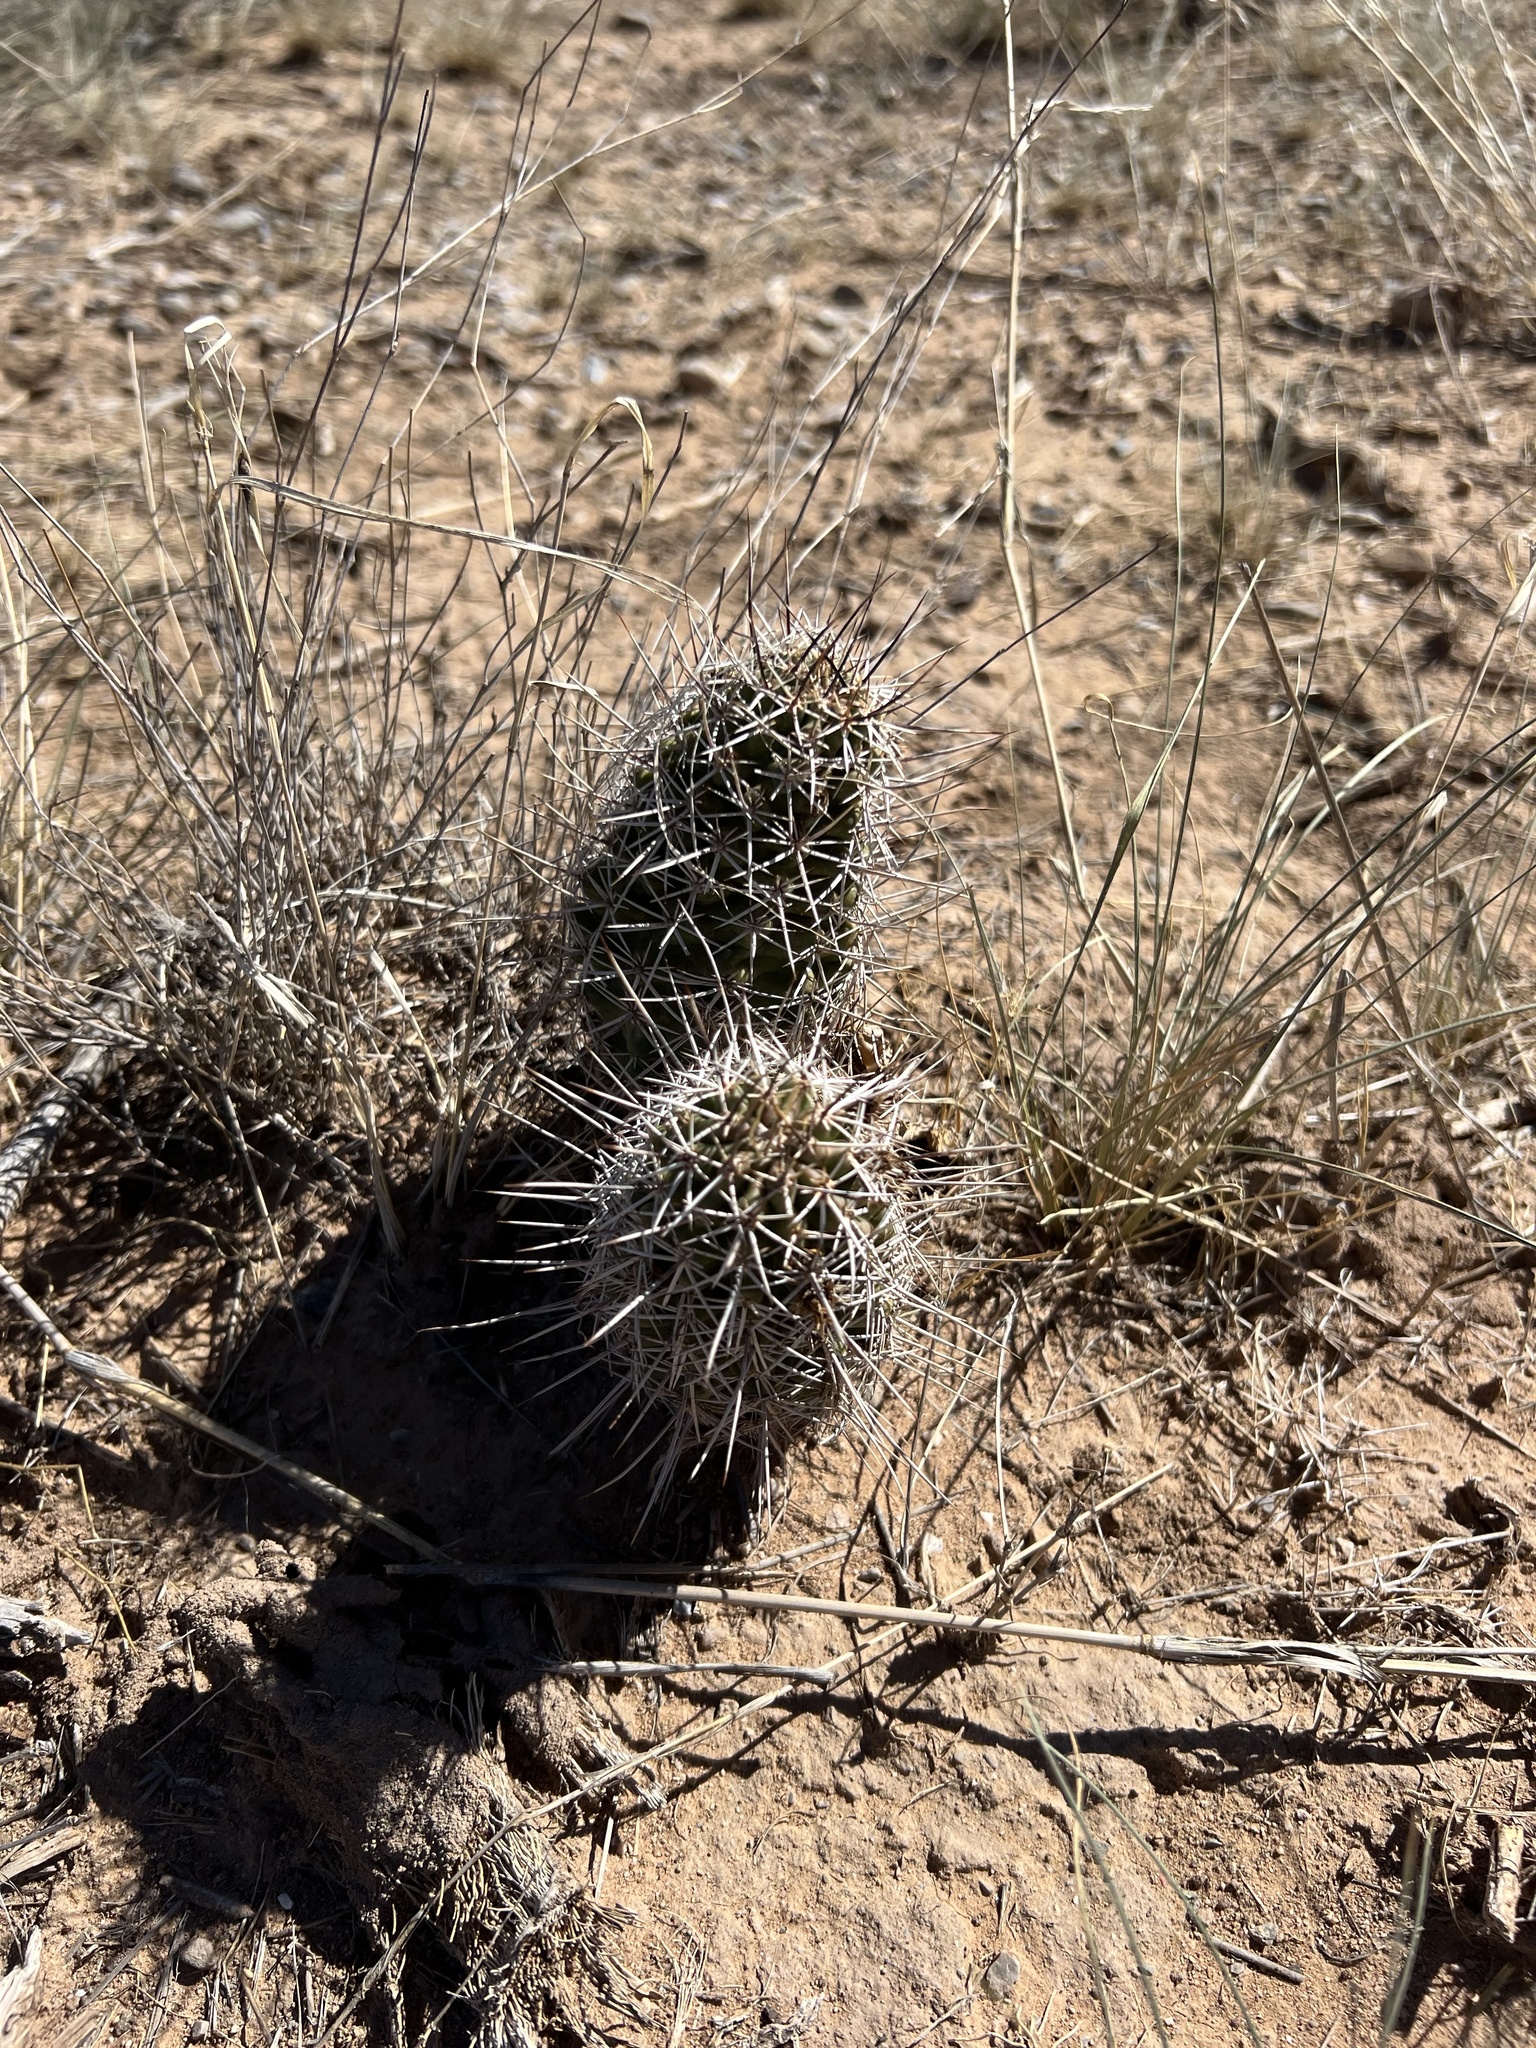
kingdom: Plantae
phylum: Tracheophyta
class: Magnoliopsida
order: Caryophyllales
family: Cactaceae
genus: Echinocereus
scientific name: Echinocereus fendleri
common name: Fendler's hedgehog cactus
